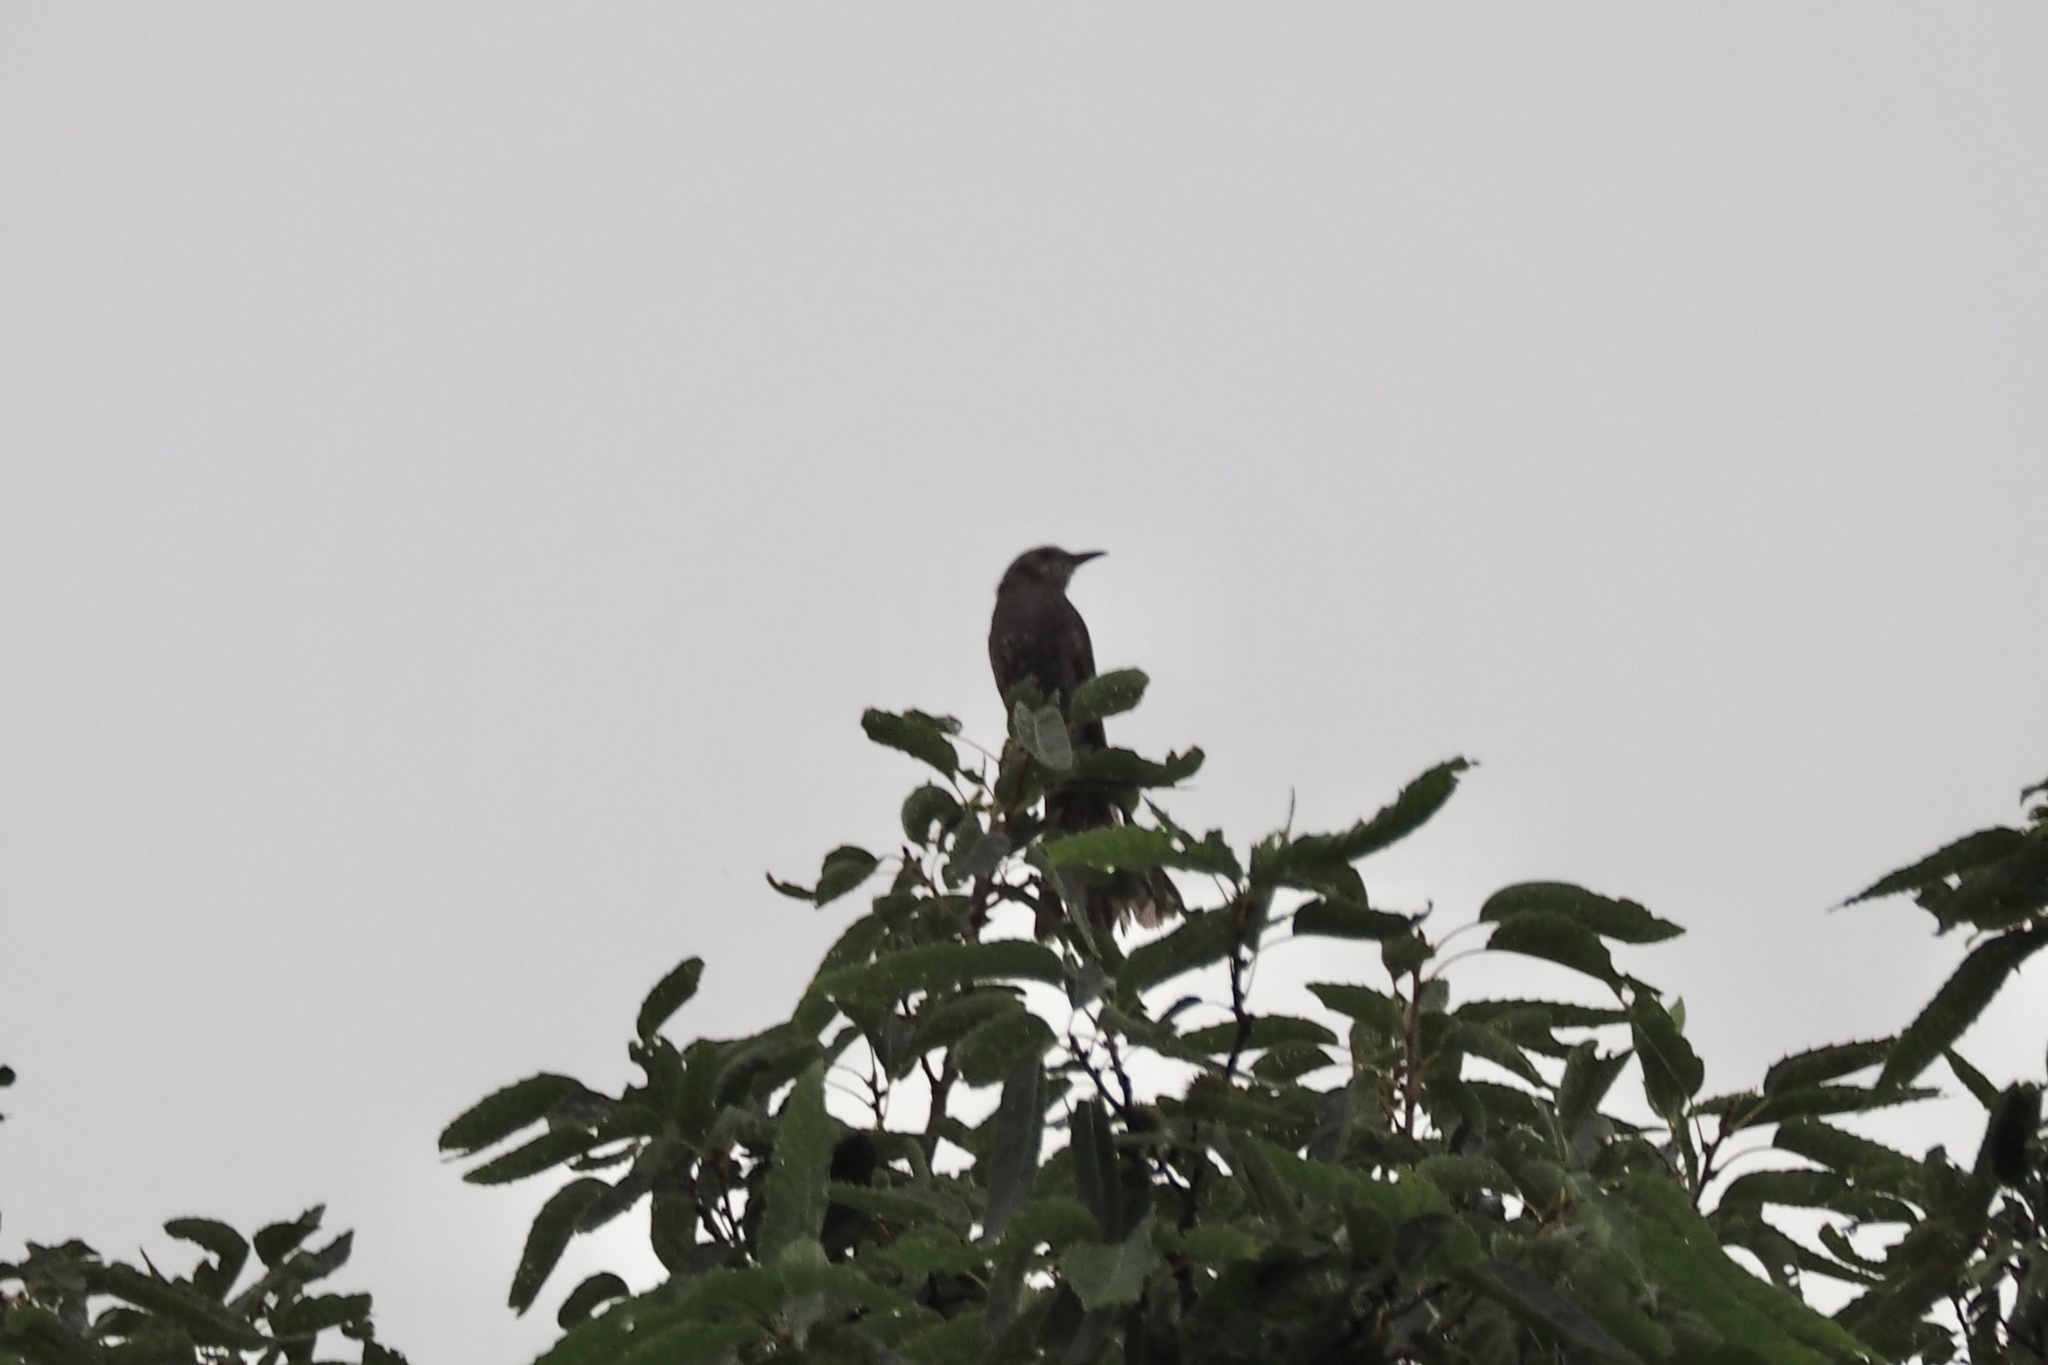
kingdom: Animalia
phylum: Chordata
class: Aves
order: Passeriformes
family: Pycnonotidae
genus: Hypsipetes
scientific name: Hypsipetes amaurotis
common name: Brown-eared bulbul
